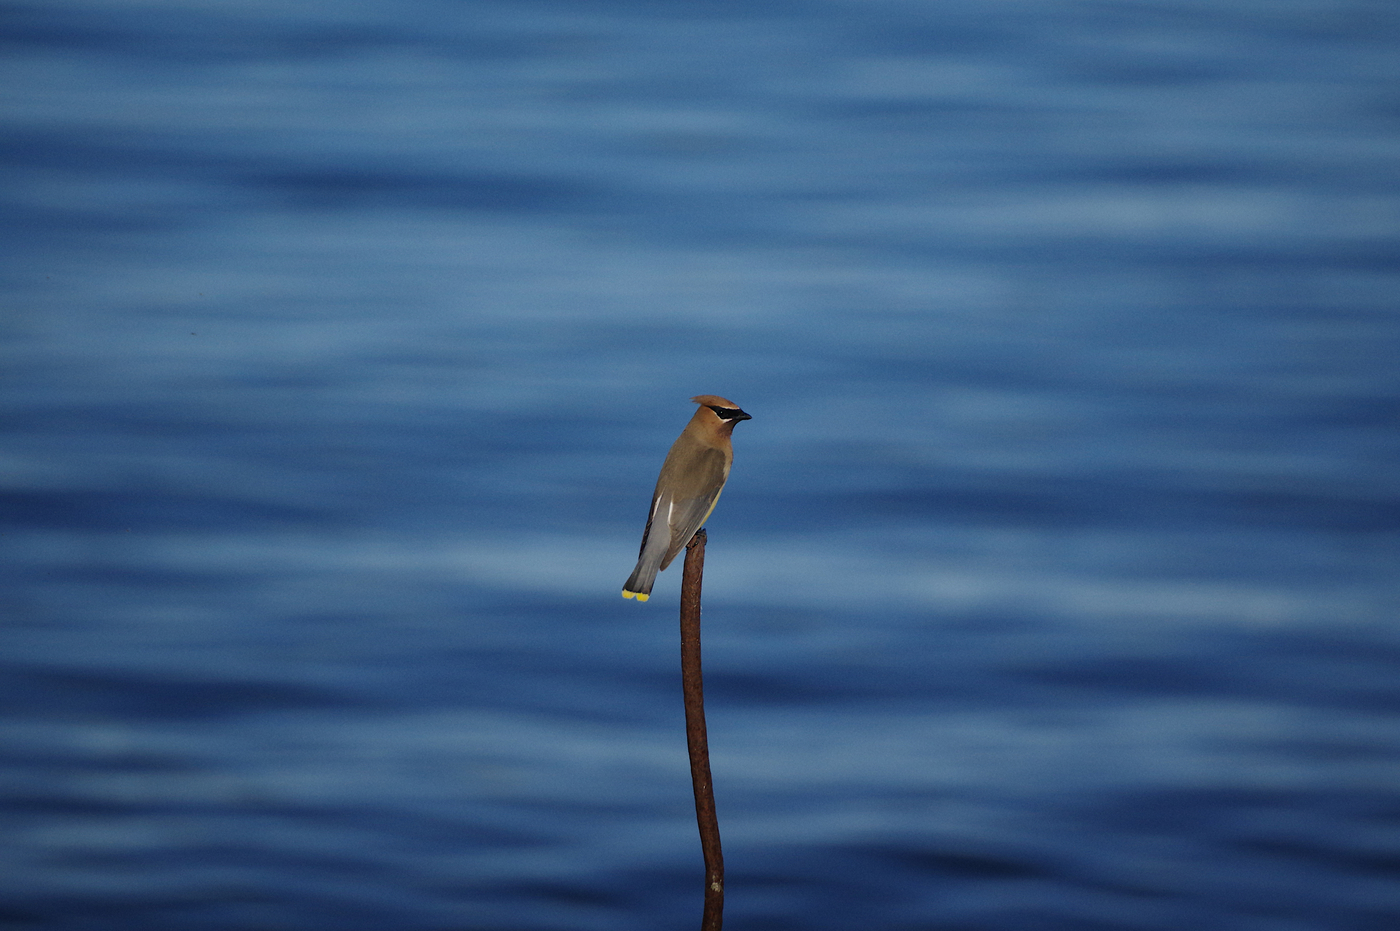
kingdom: Animalia
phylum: Chordata
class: Aves
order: Passeriformes
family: Bombycillidae
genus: Bombycilla
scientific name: Bombycilla cedrorum
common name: Cedar waxwing
